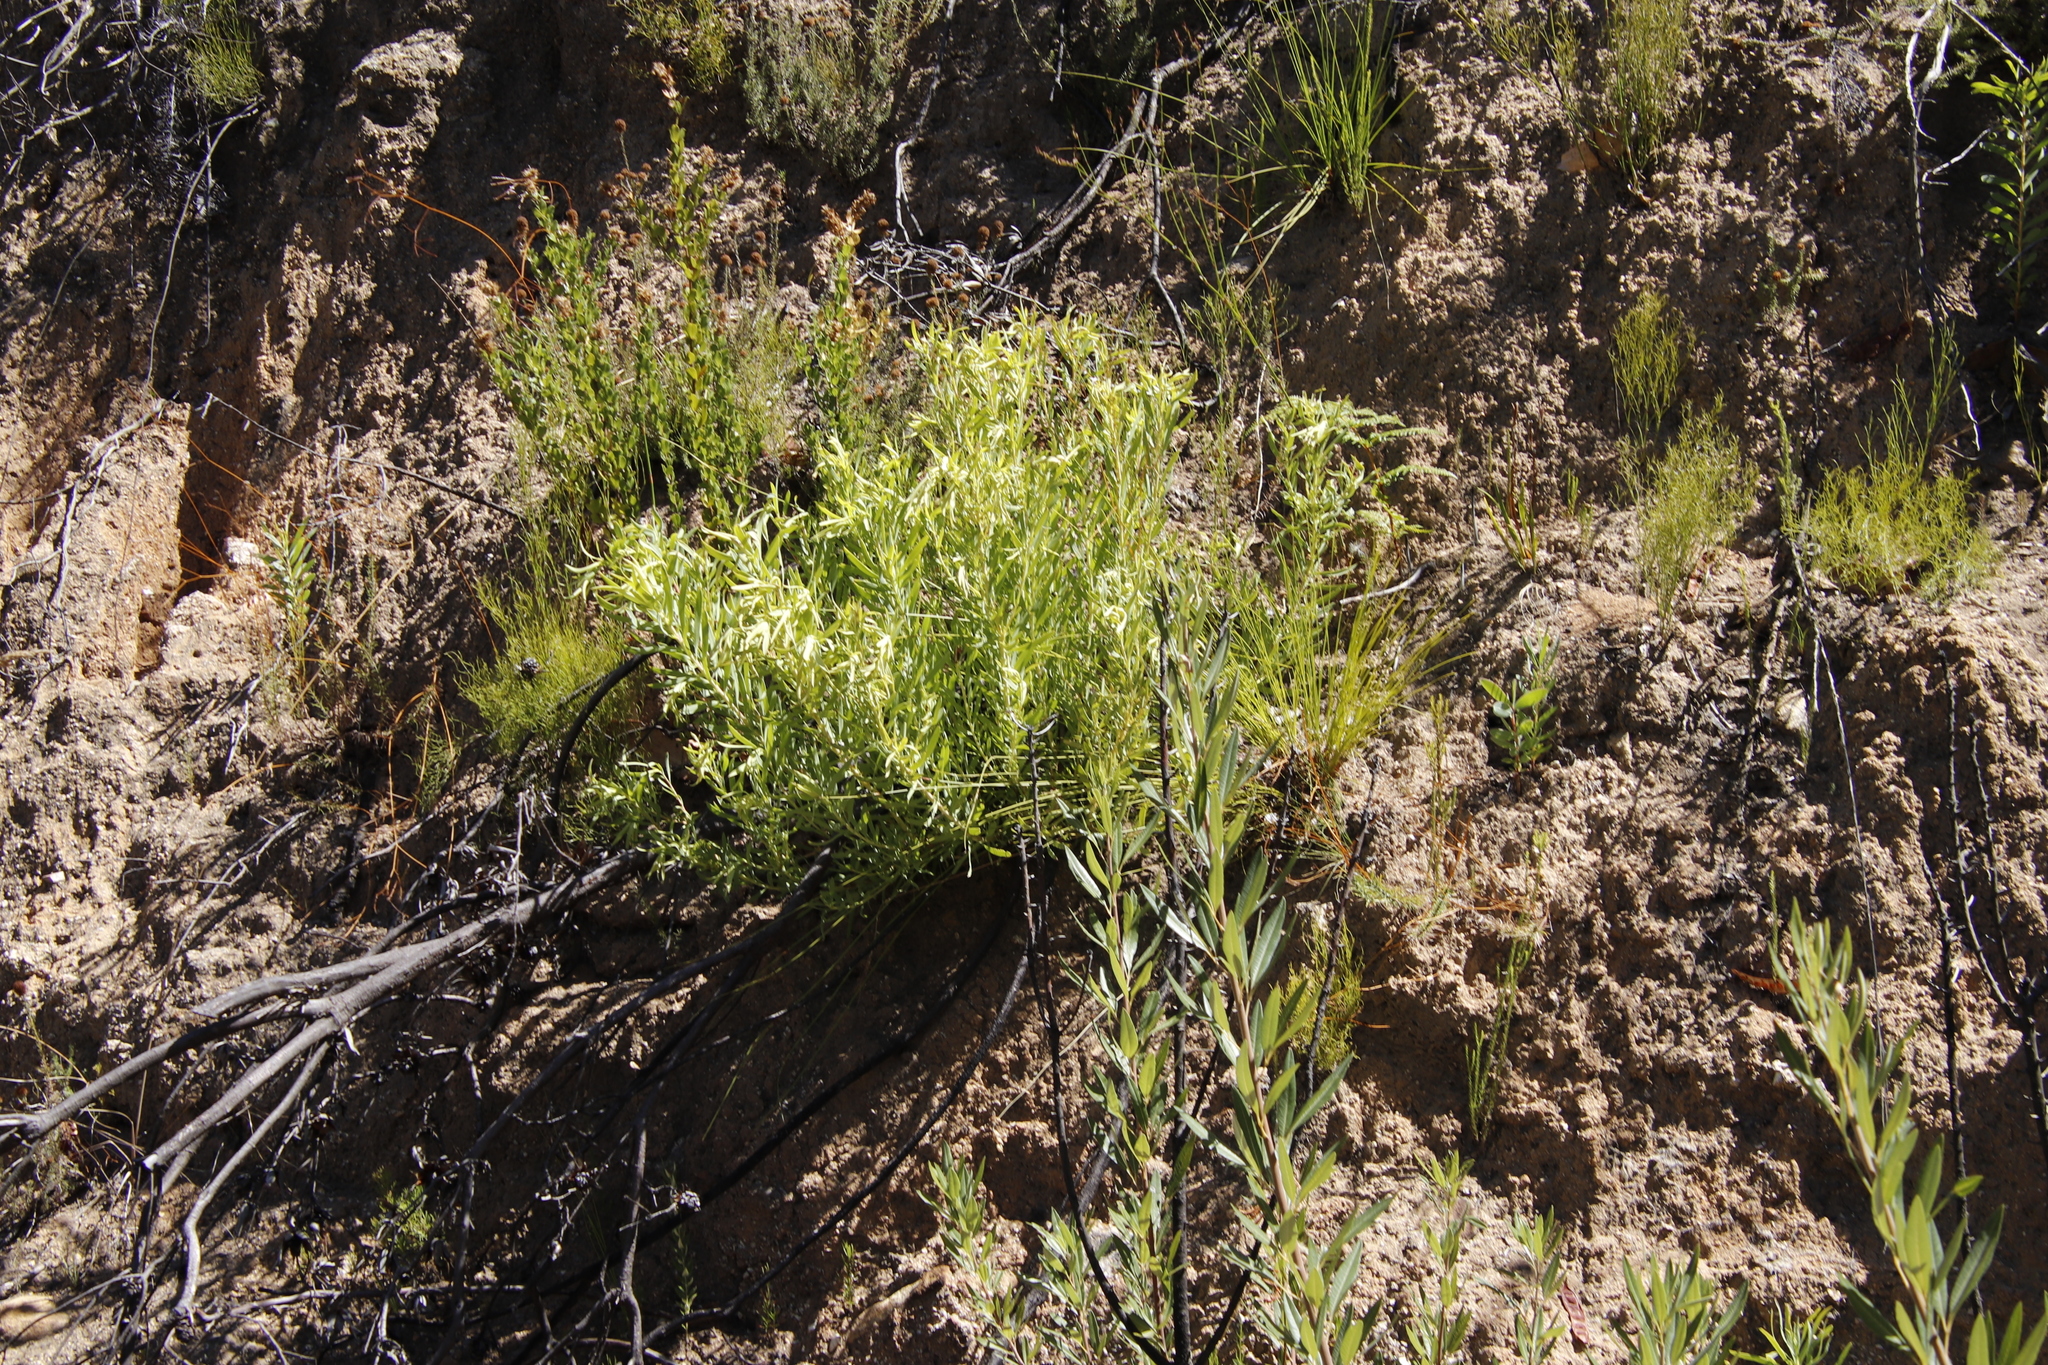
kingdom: Plantae
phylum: Tracheophyta
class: Magnoliopsida
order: Proteales
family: Proteaceae
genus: Leucadendron
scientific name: Leucadendron salignum
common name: Common sunshine conebush
